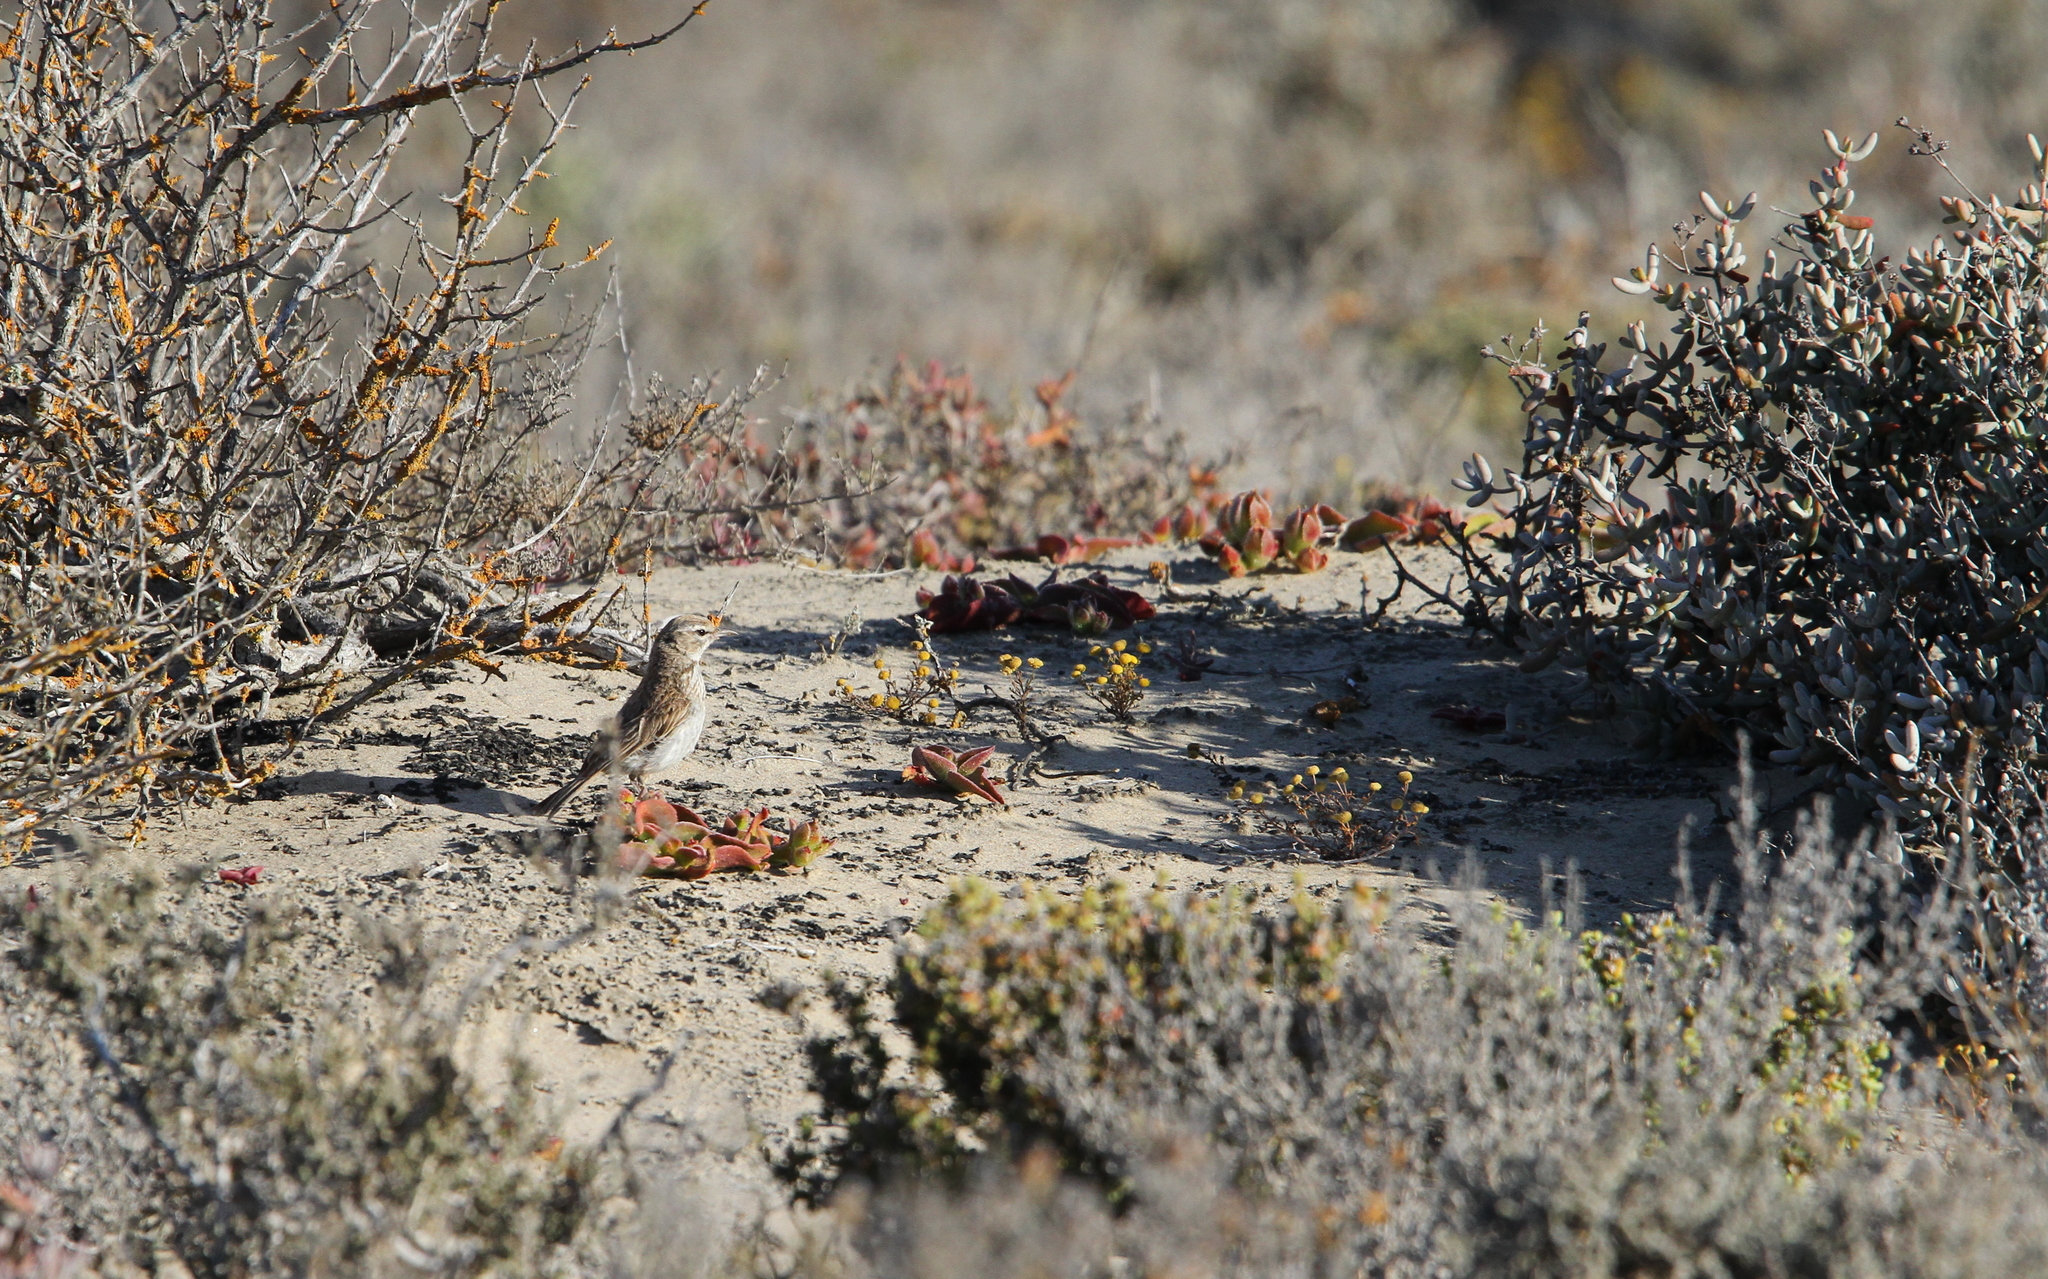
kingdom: Animalia
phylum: Chordata
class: Aves
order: Passeriformes
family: Alaudidae
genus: Calendulauda
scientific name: Calendulauda erythrochlamys
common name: Dune lark
